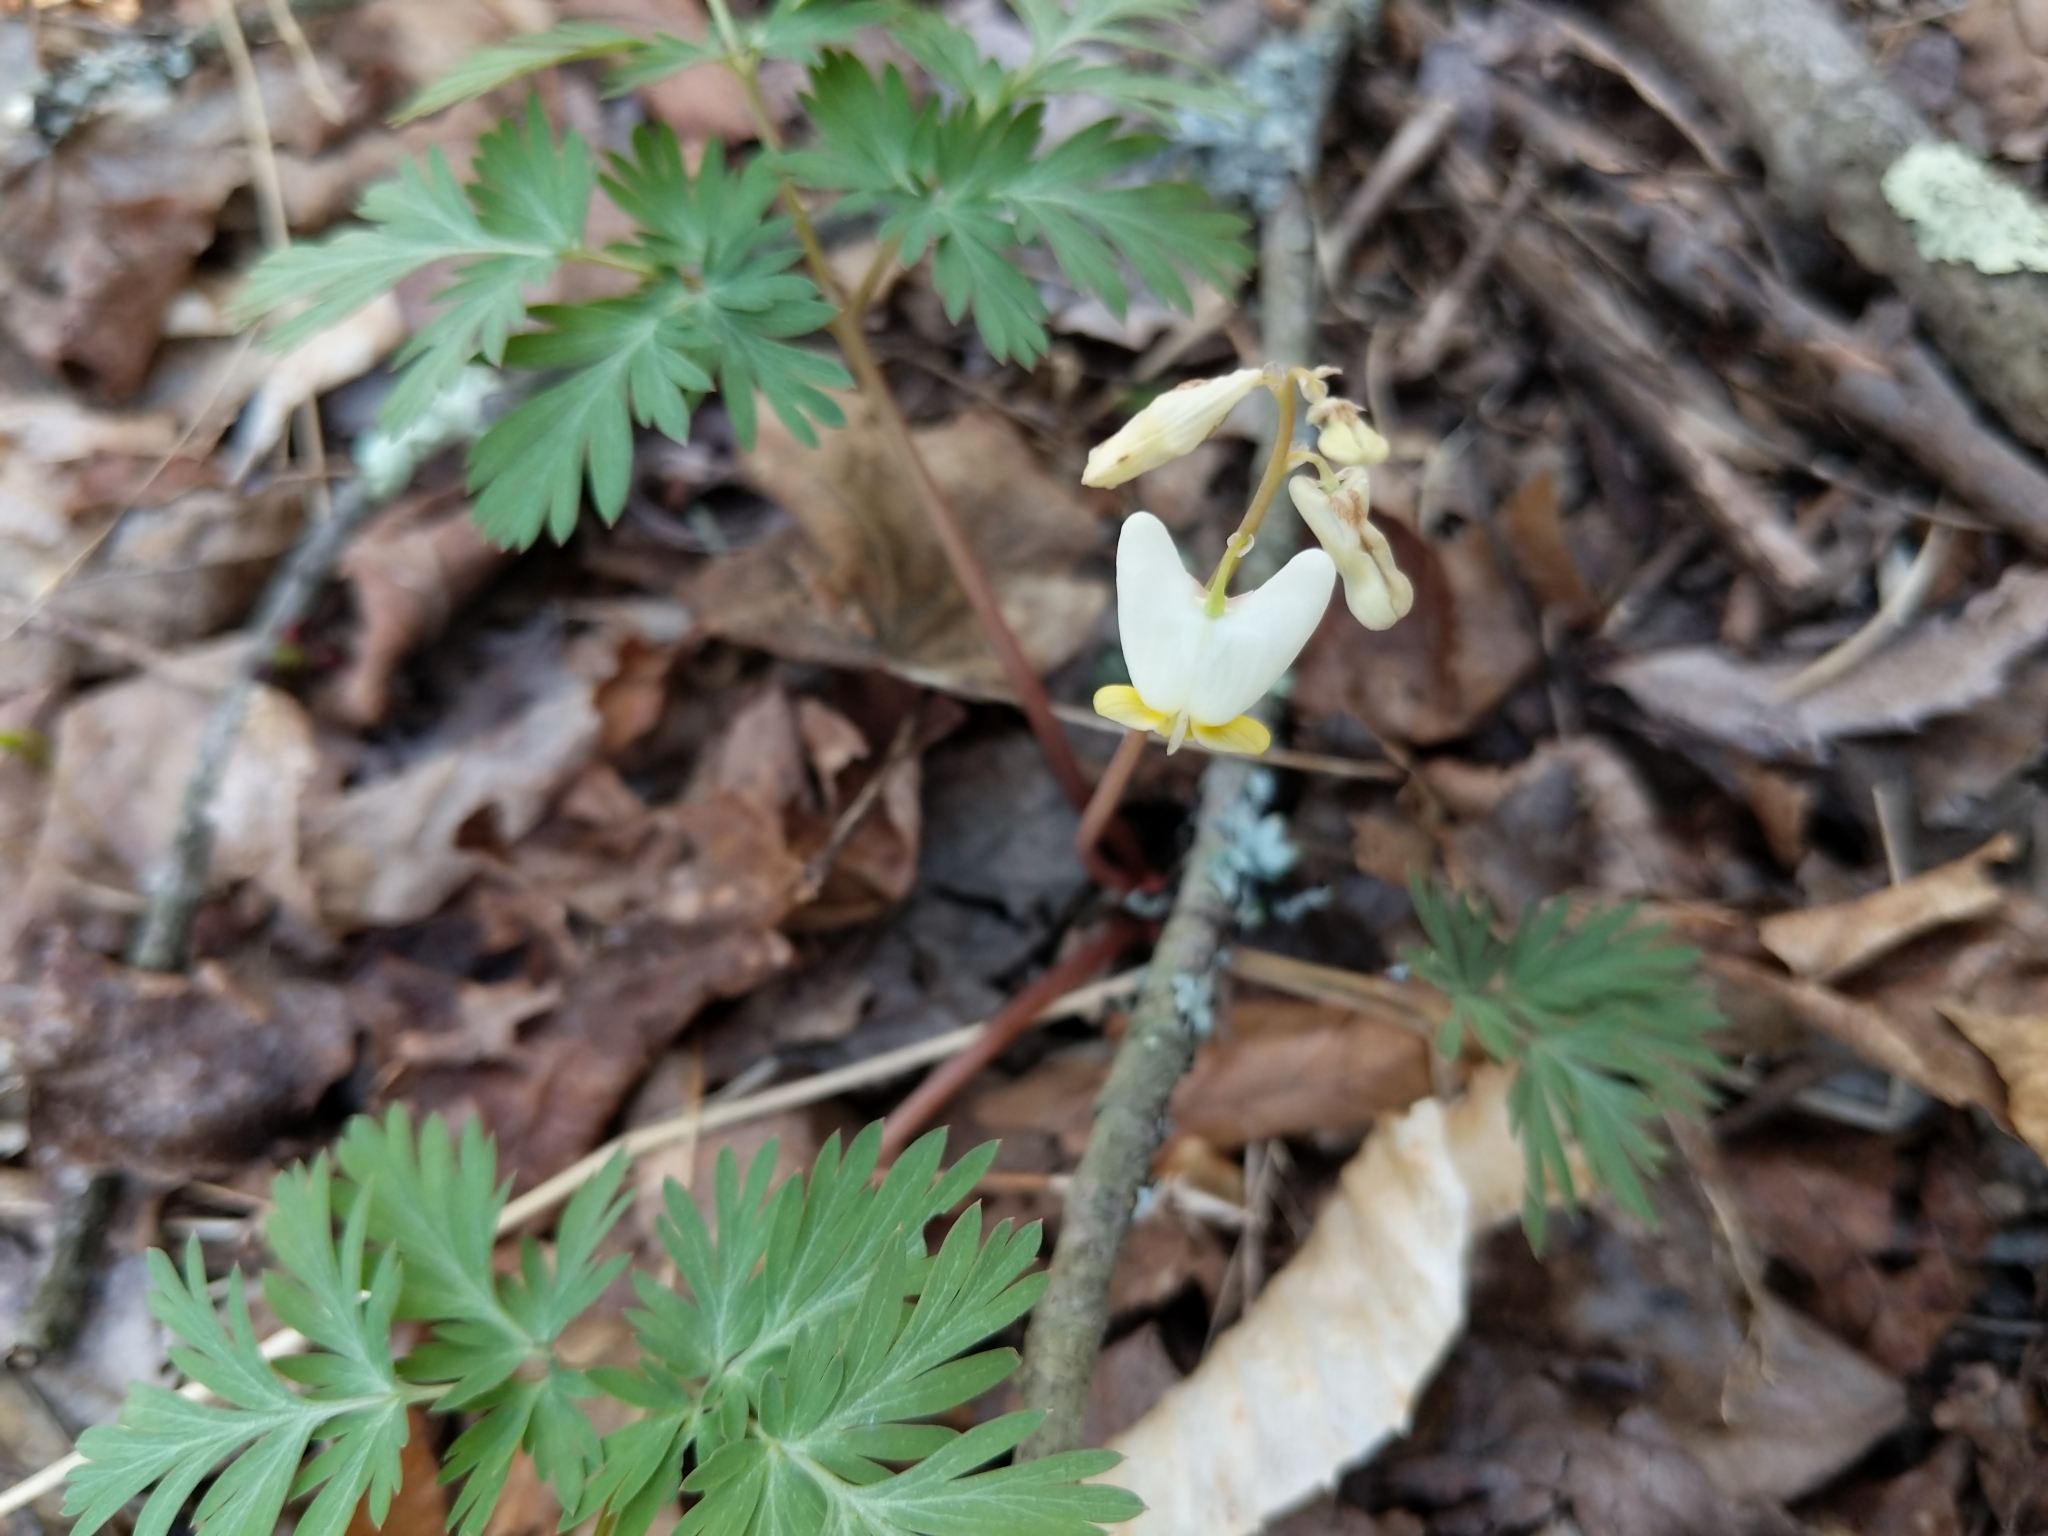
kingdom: Plantae
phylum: Tracheophyta
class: Magnoliopsida
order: Ranunculales
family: Papaveraceae
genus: Dicentra
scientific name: Dicentra cucullaria
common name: Dutchman's breeches
